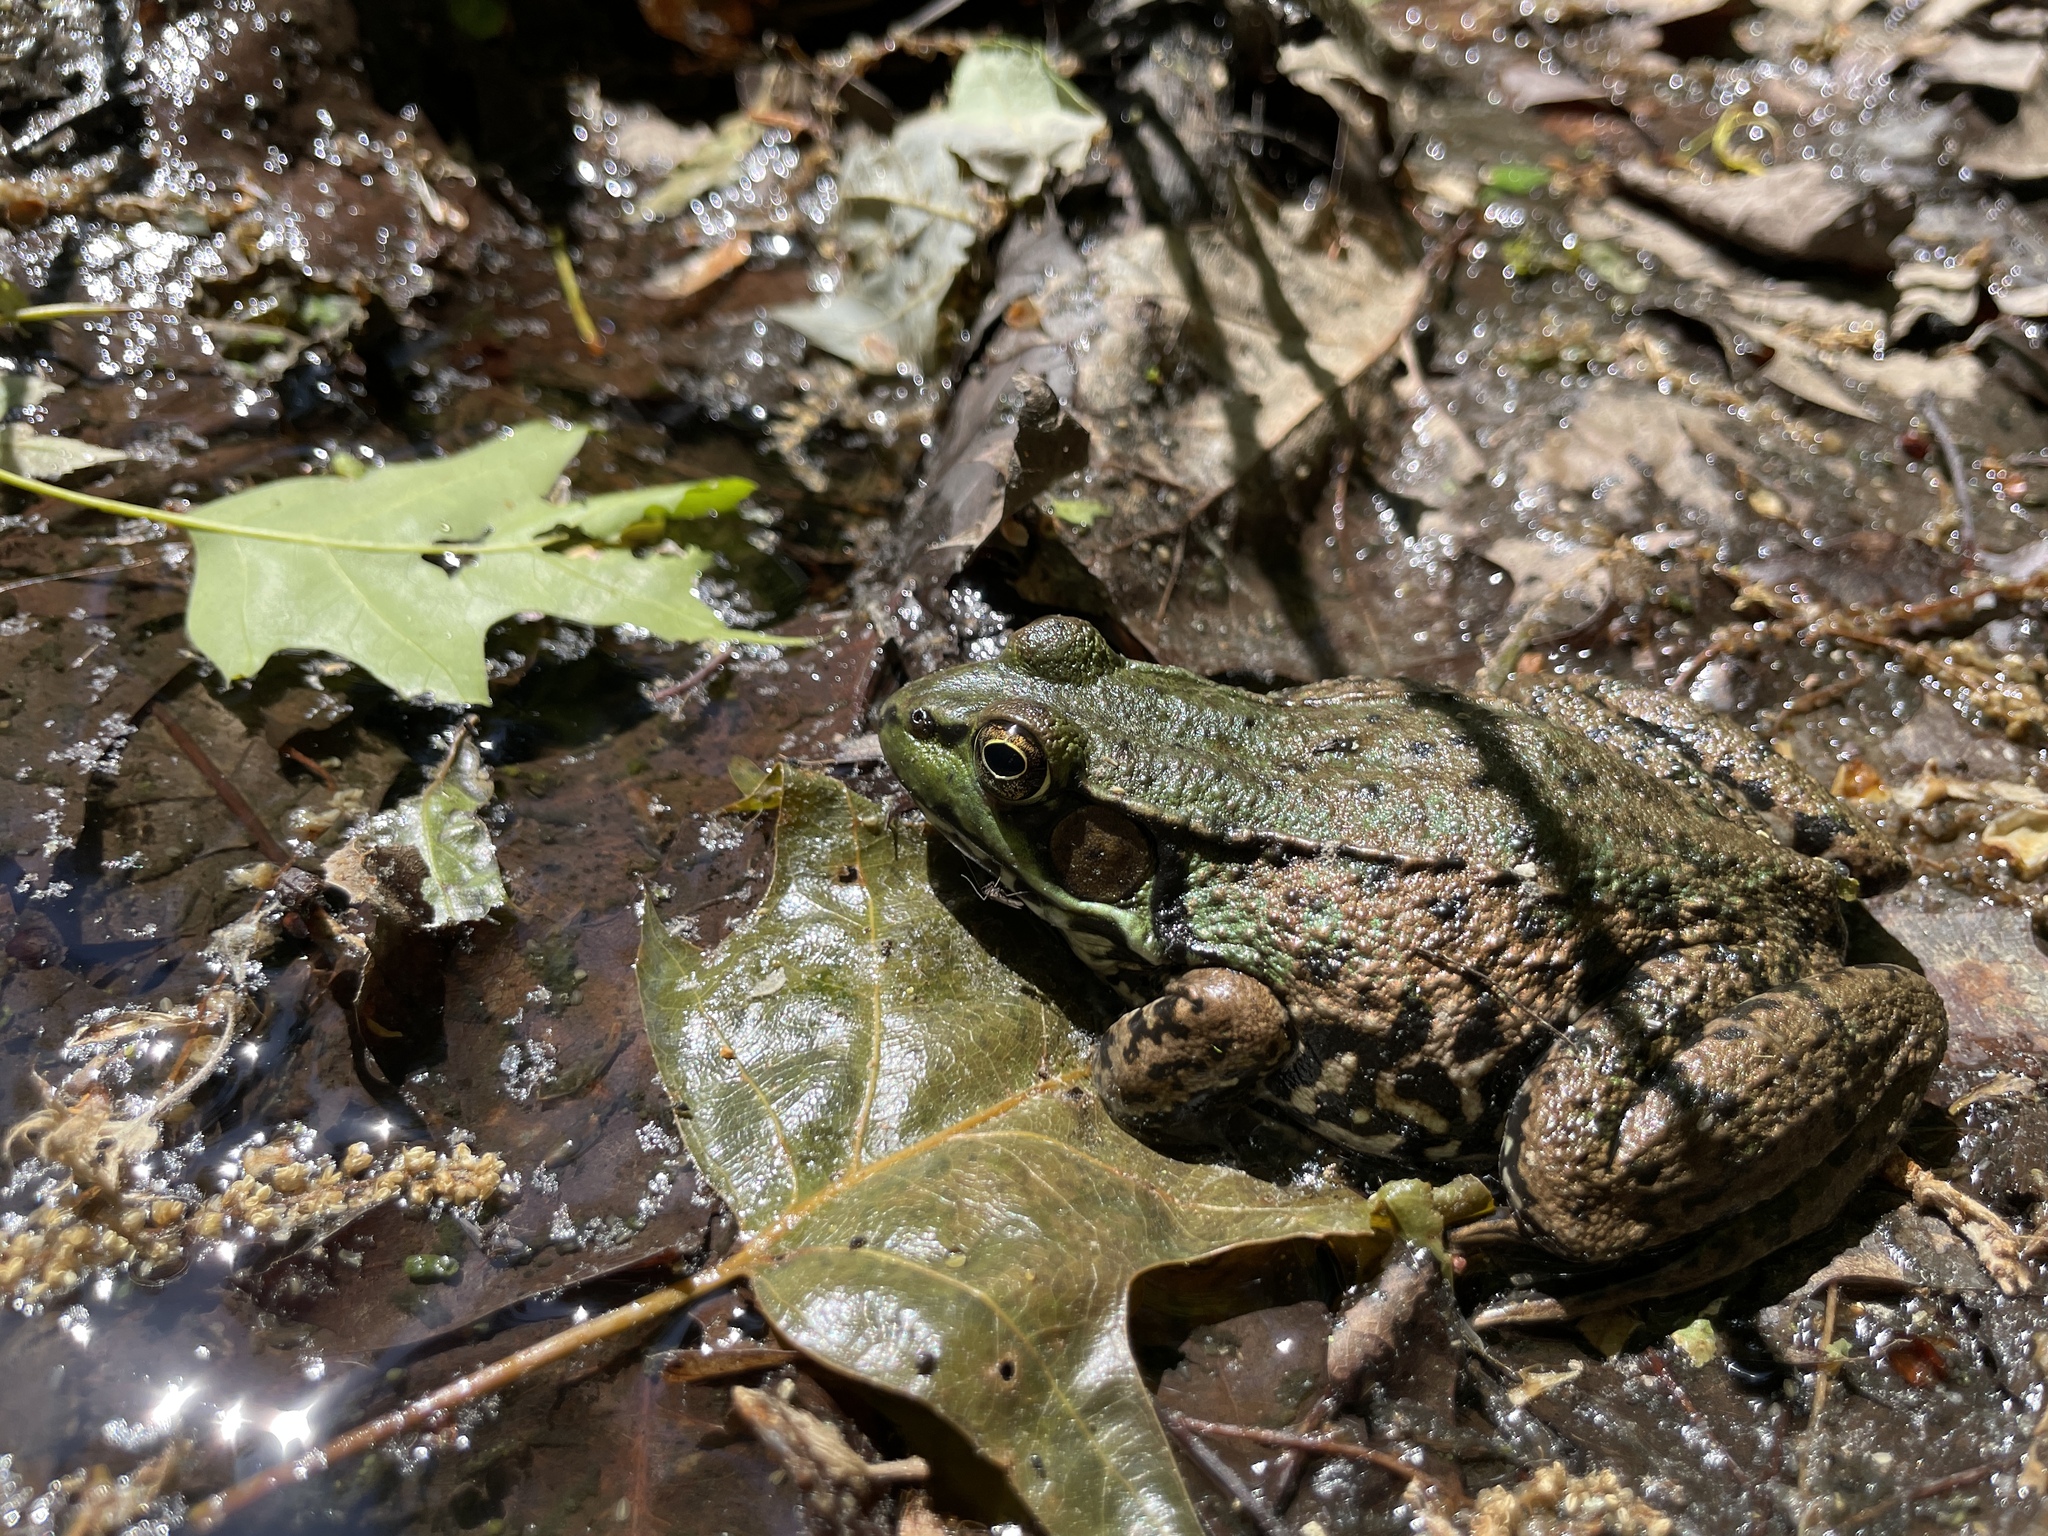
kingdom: Animalia
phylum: Chordata
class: Amphibia
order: Anura
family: Ranidae
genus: Lithobates
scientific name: Lithobates clamitans
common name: Green frog
